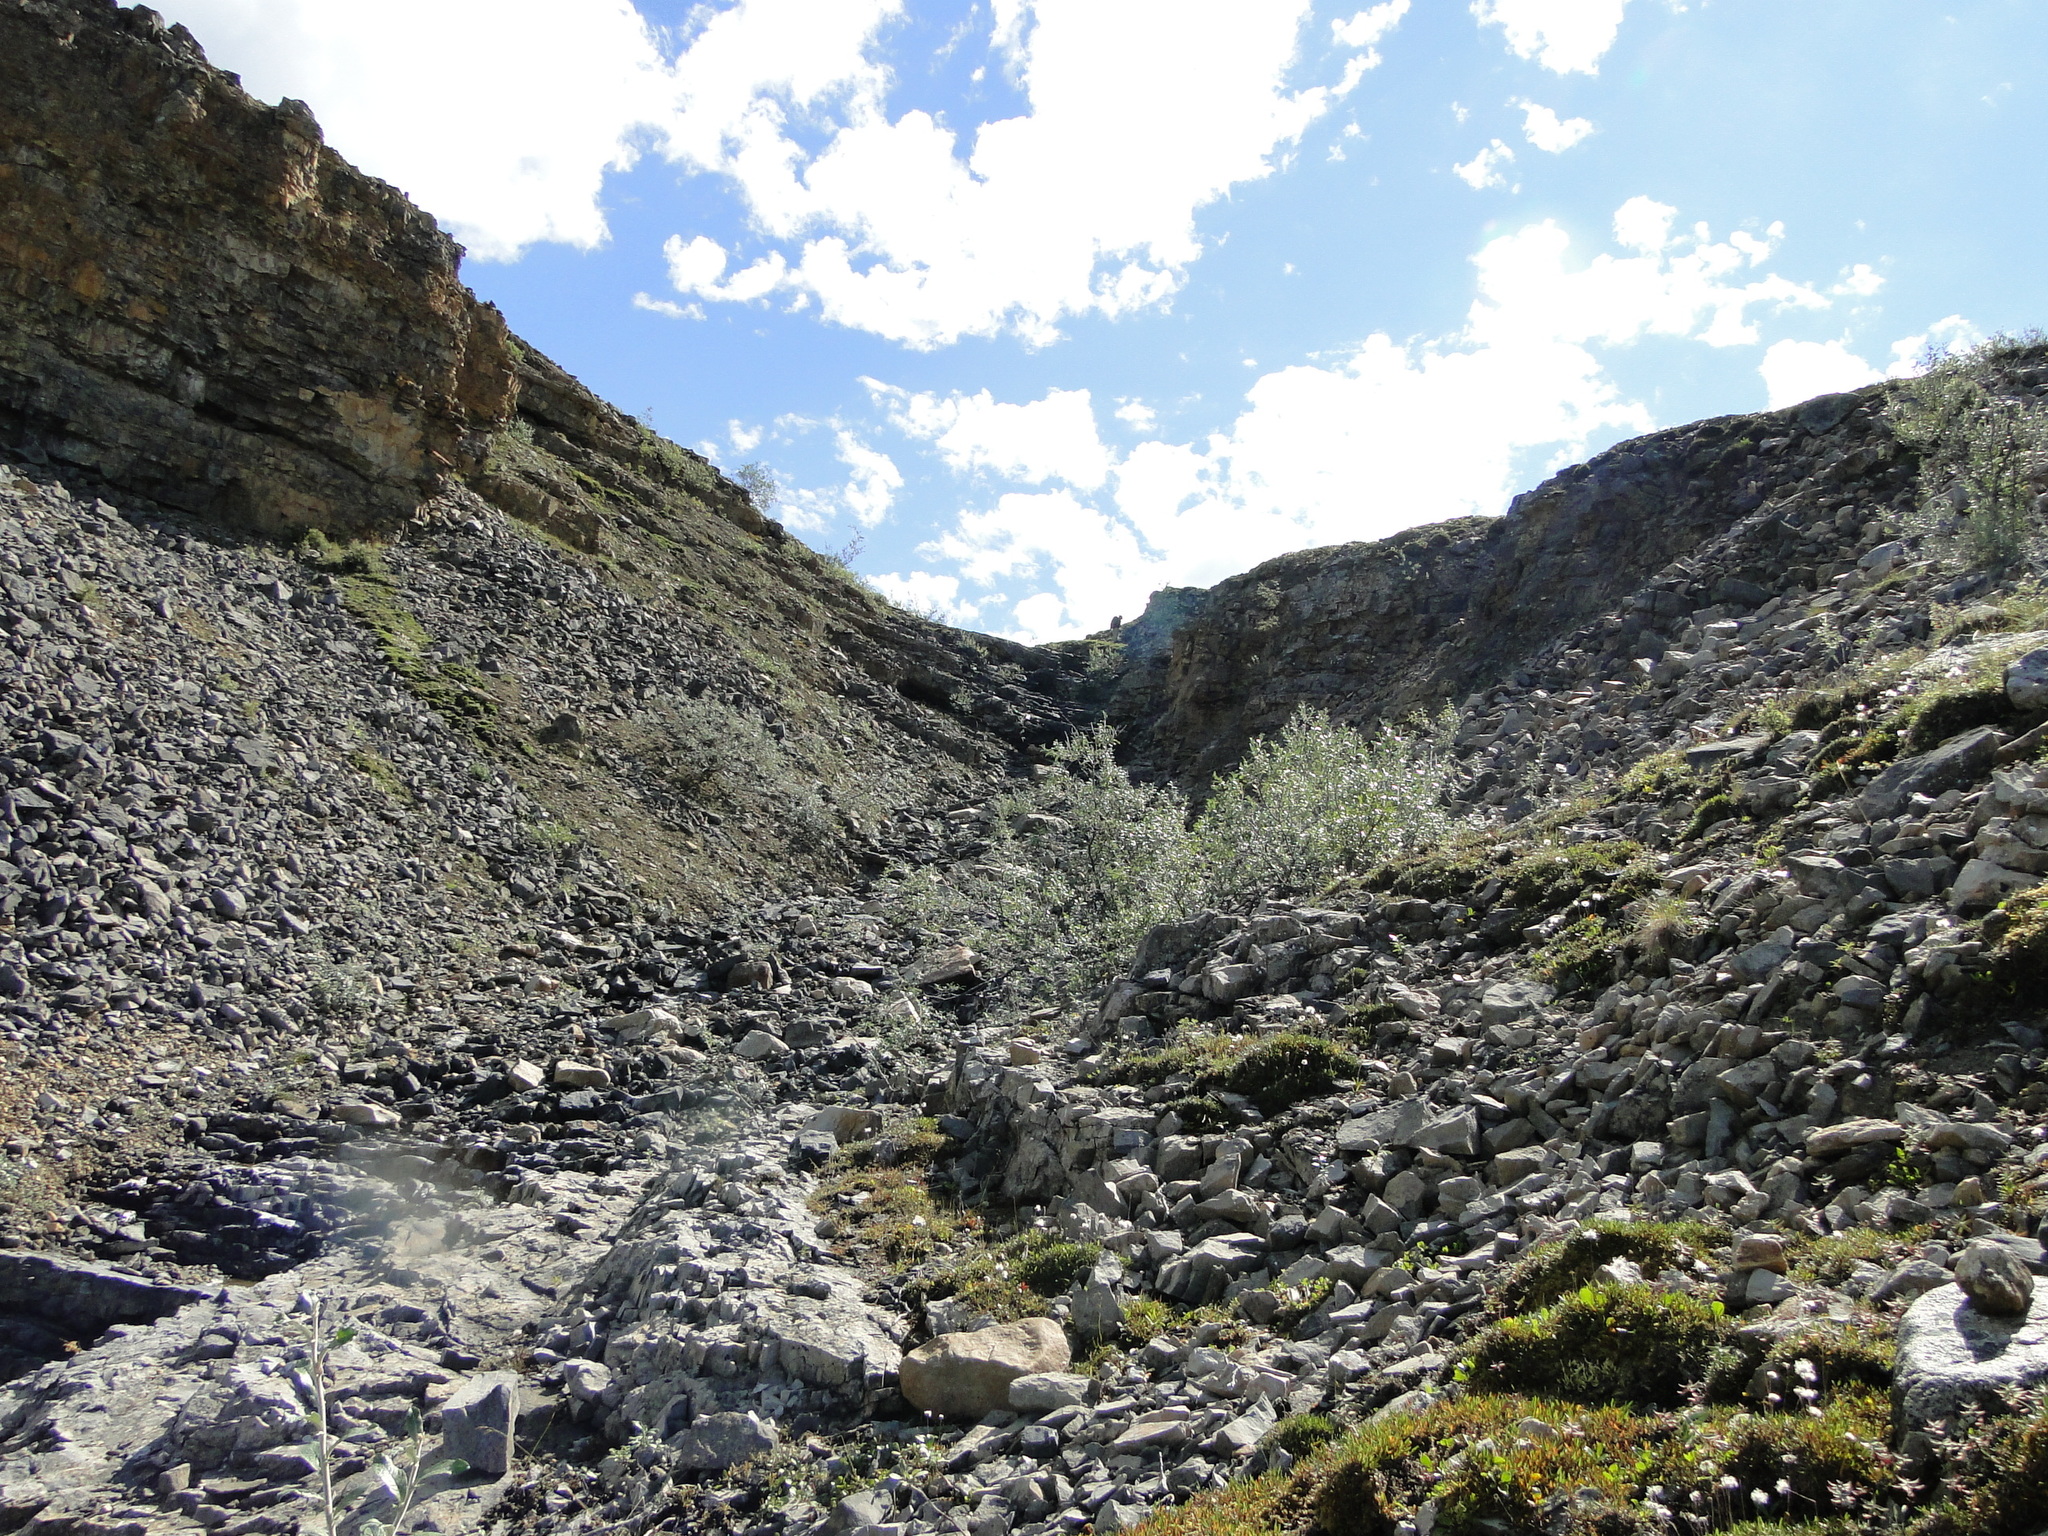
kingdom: Plantae
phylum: Tracheophyta
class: Magnoliopsida
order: Malpighiales
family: Salicaceae
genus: Salix
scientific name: Salix alaxensis
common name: Feltleaf willow
